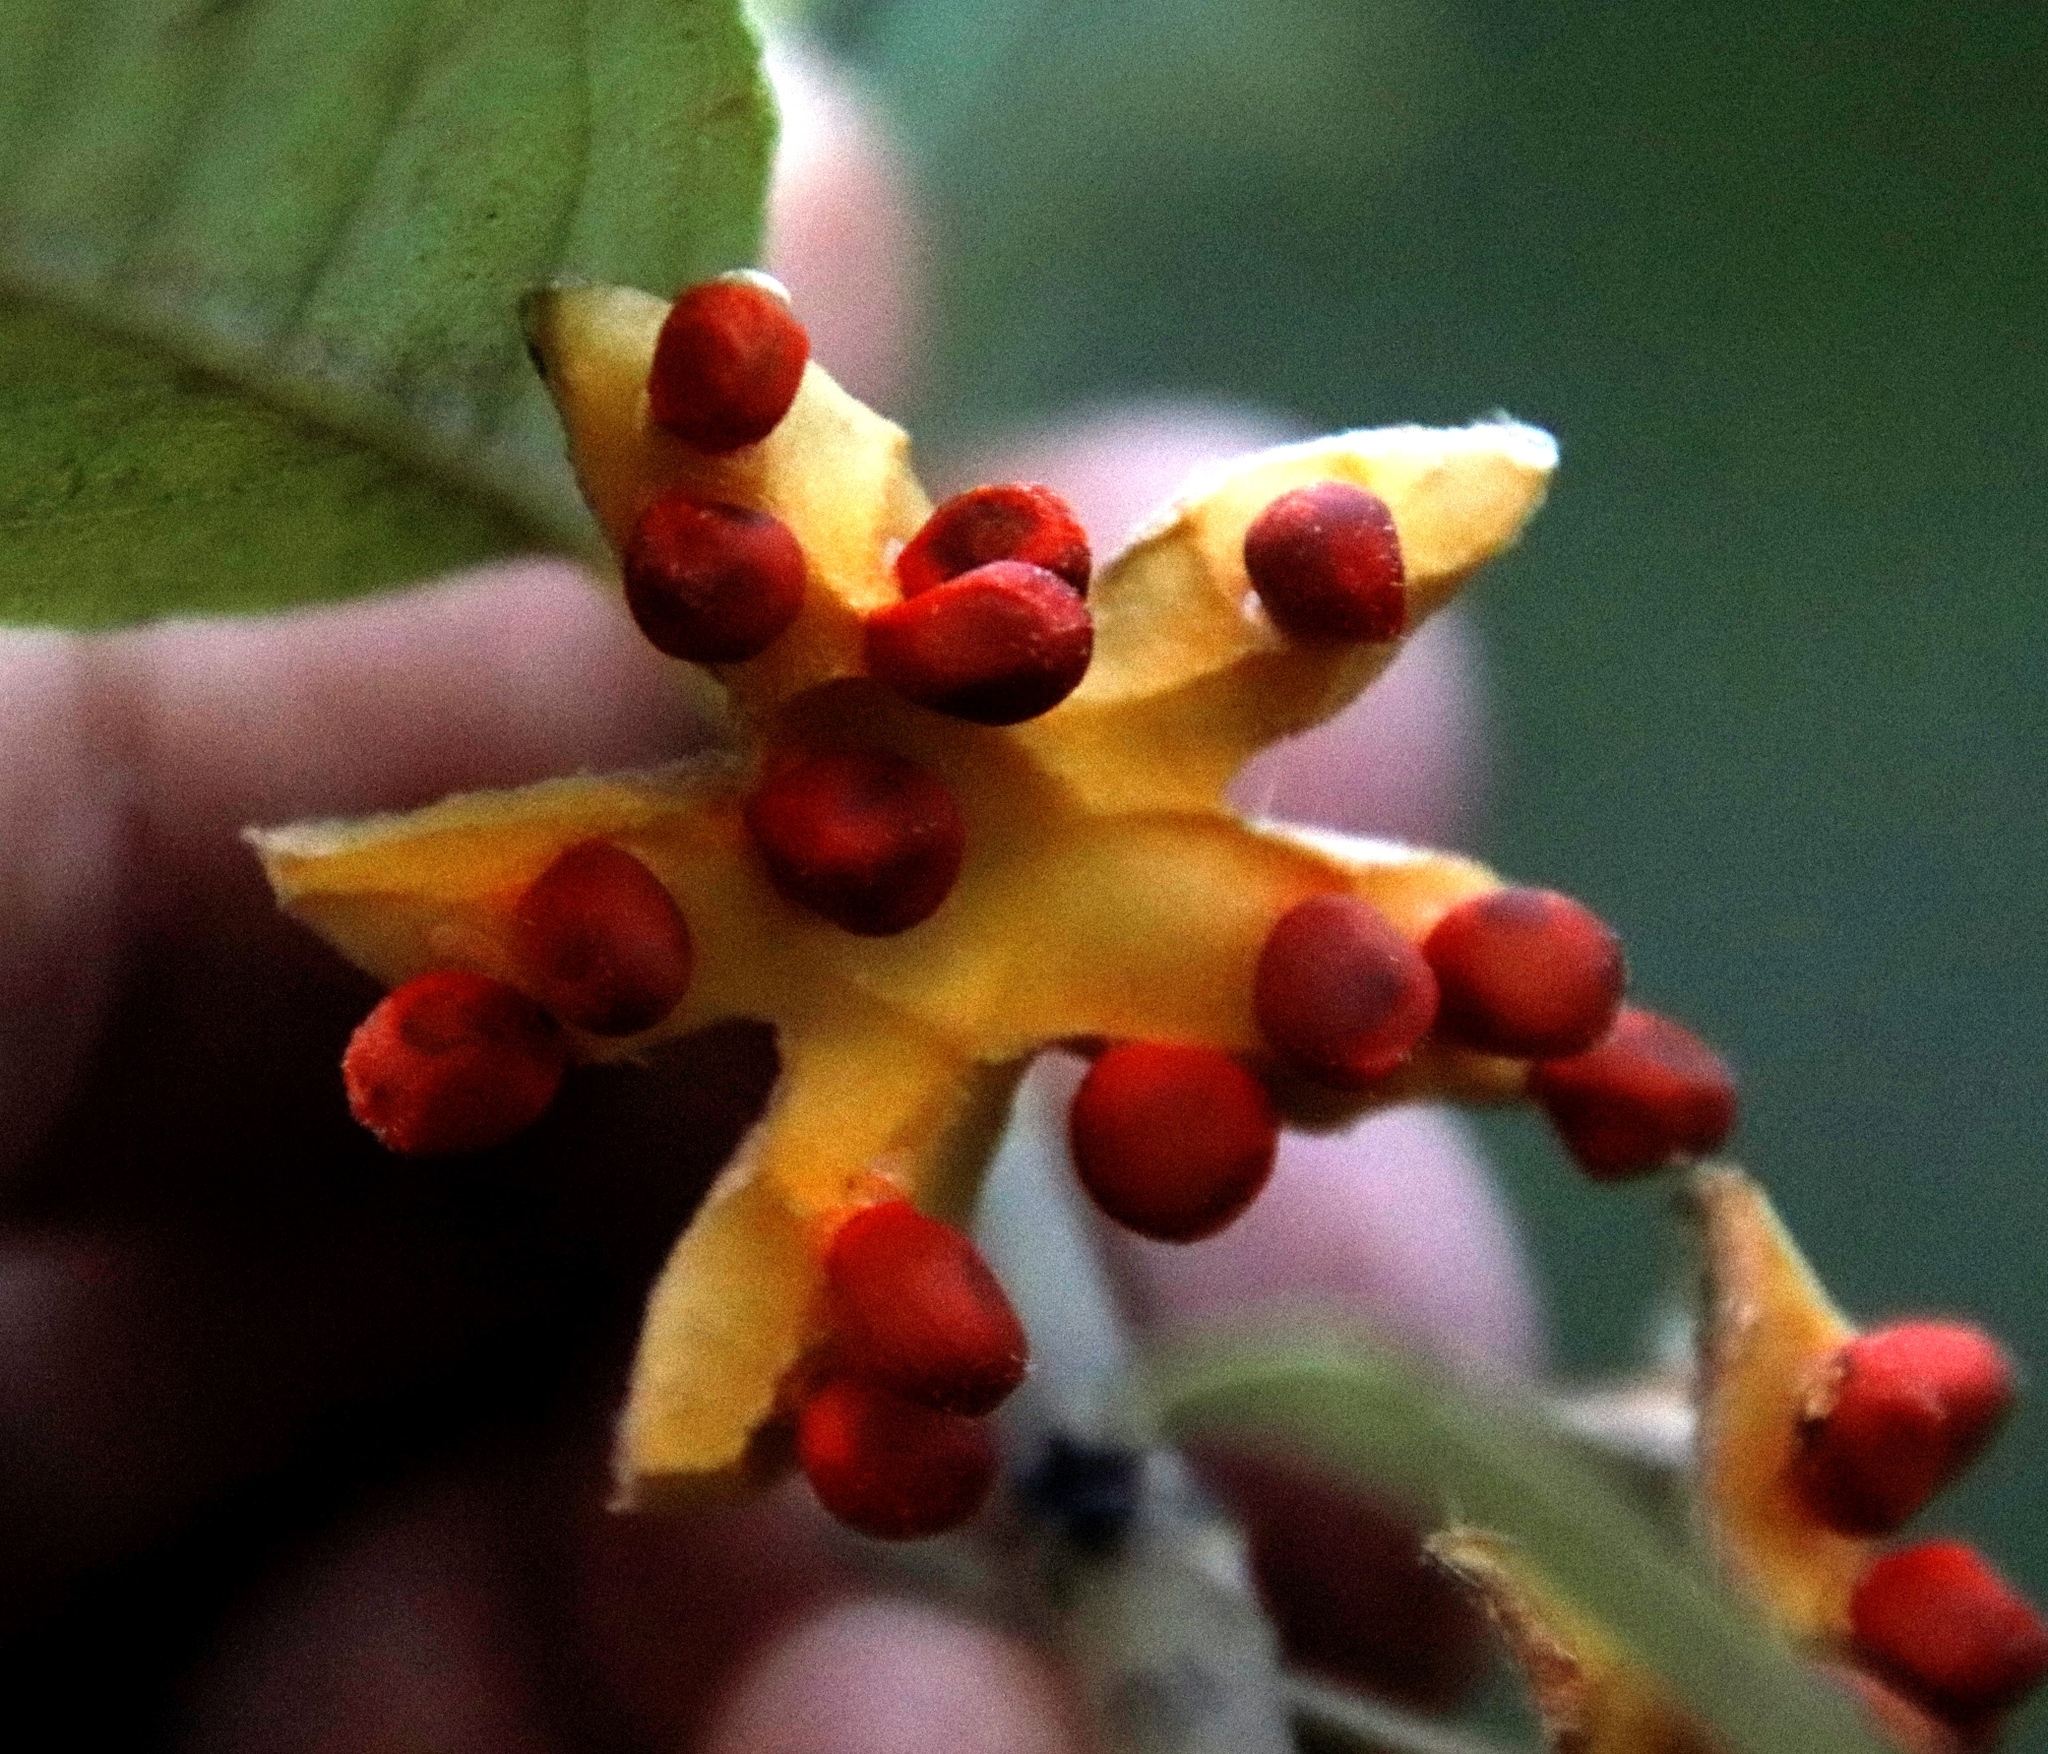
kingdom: Plantae
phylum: Tracheophyta
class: Magnoliopsida
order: Malpighiales
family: Achariaceae
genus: Kiggelaria
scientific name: Kiggelaria africana
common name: Wild peach
